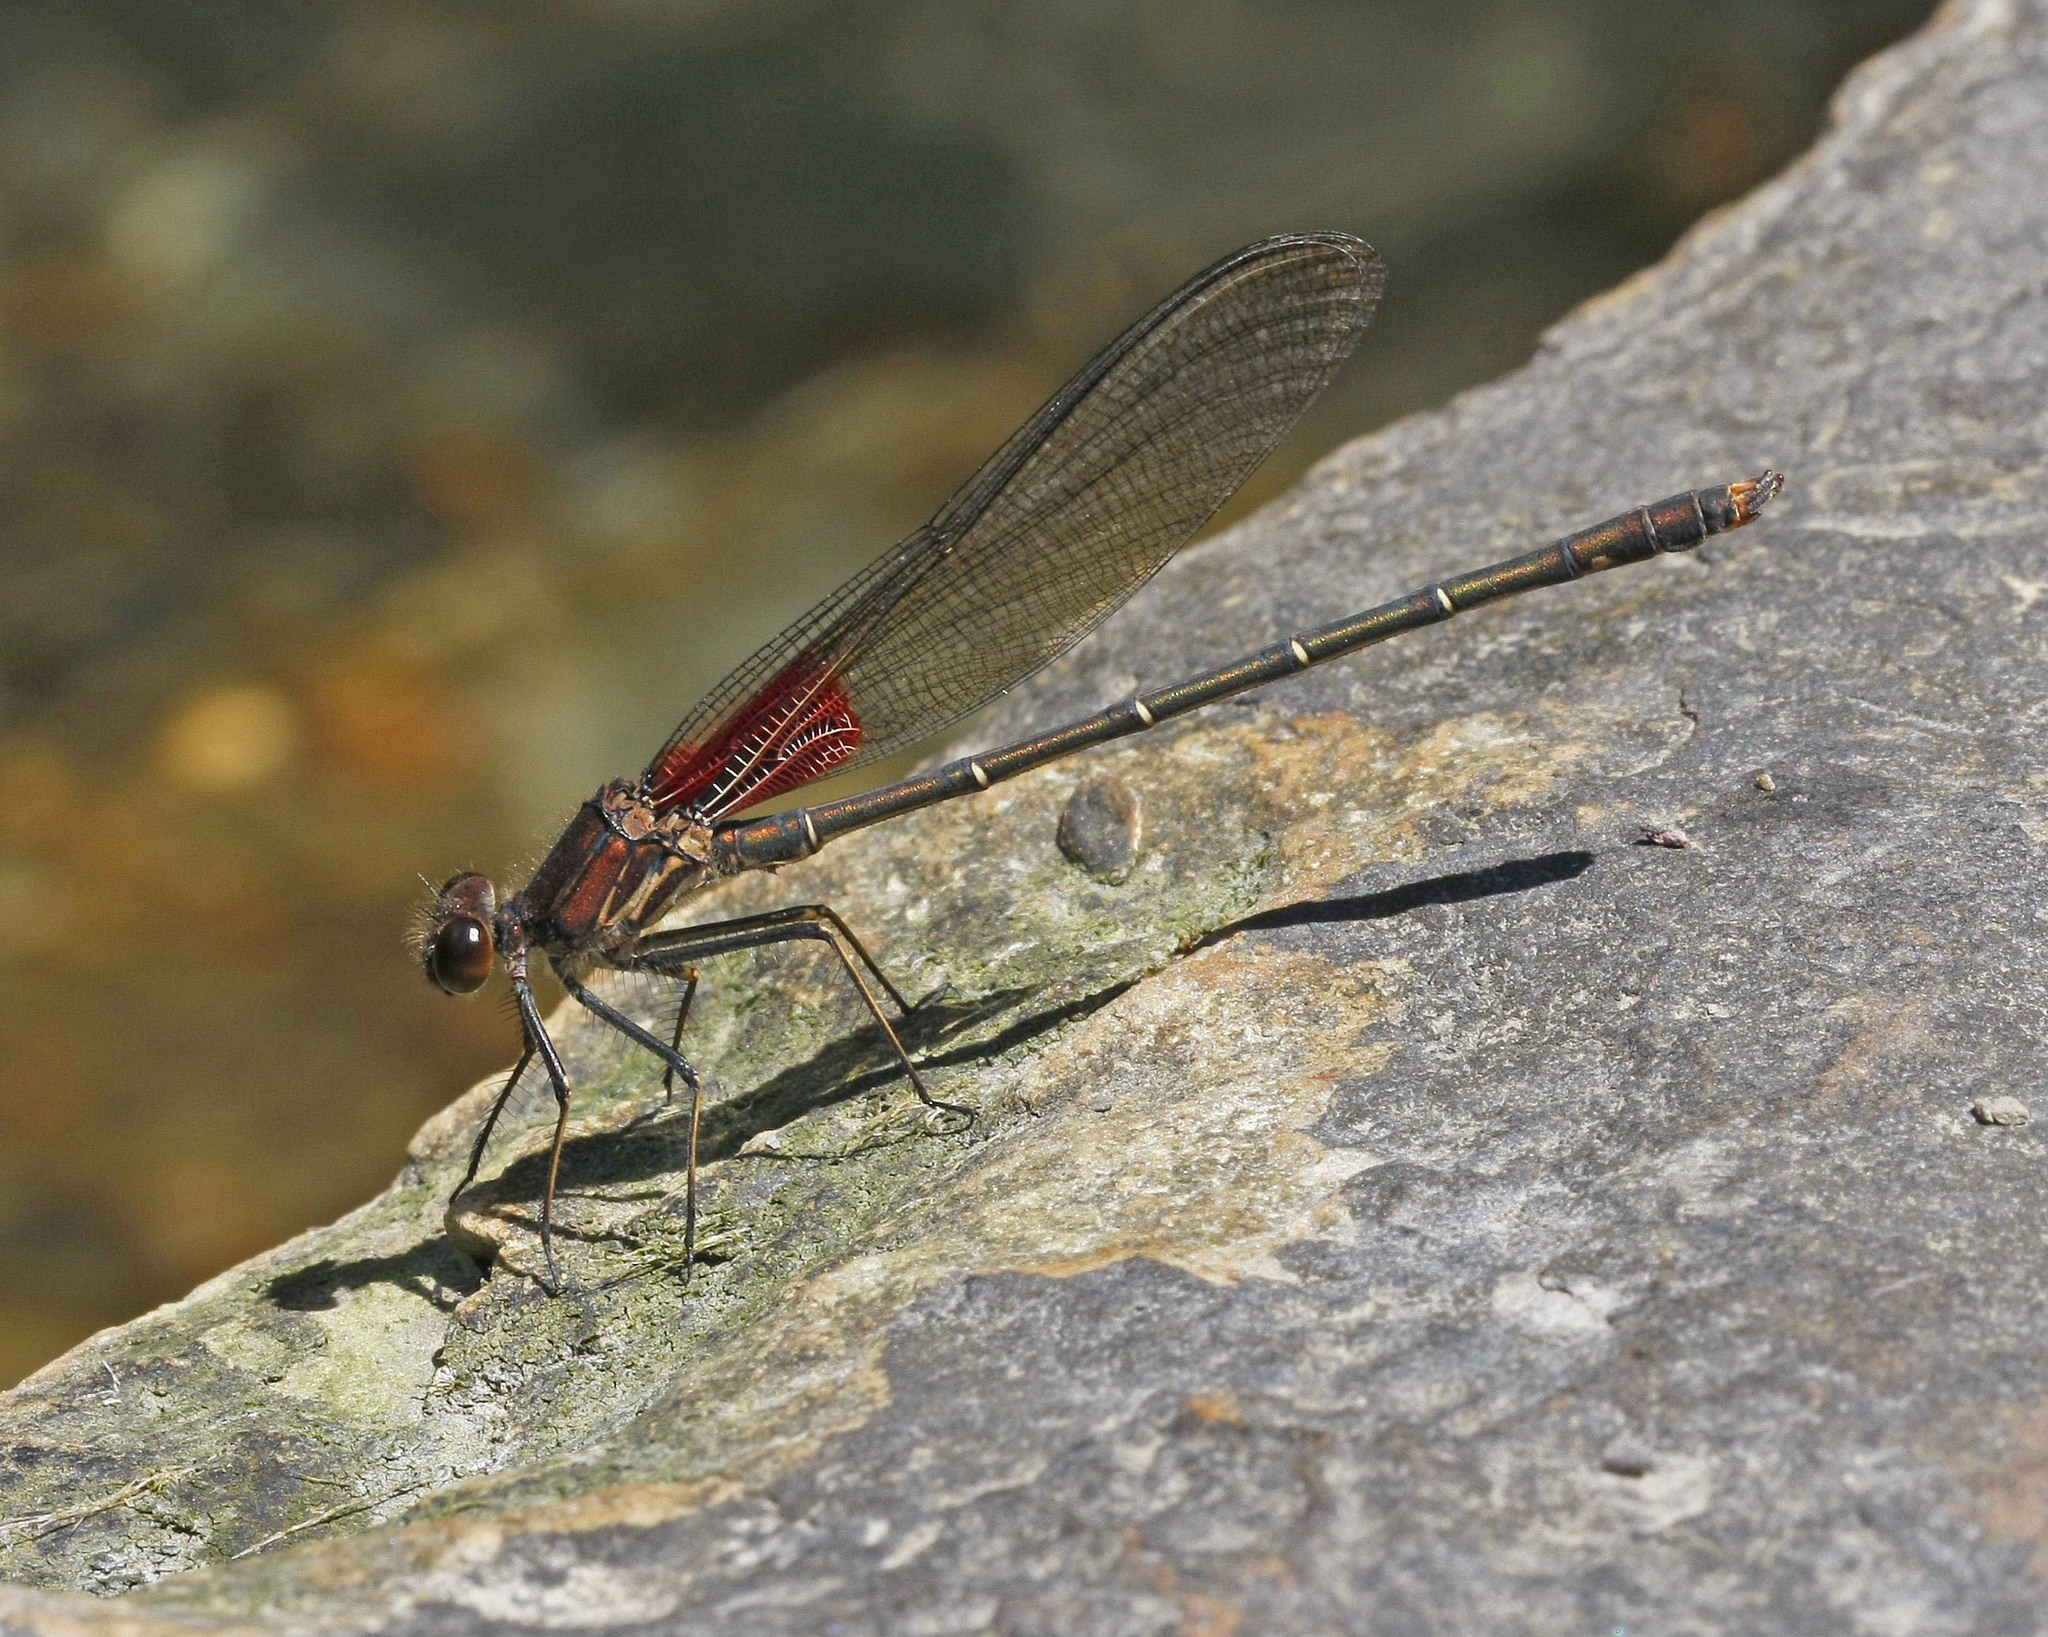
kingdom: Animalia
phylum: Arthropoda
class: Insecta
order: Odonata
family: Calopterygidae
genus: Hetaerina
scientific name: Hetaerina americana
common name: American rubyspot
